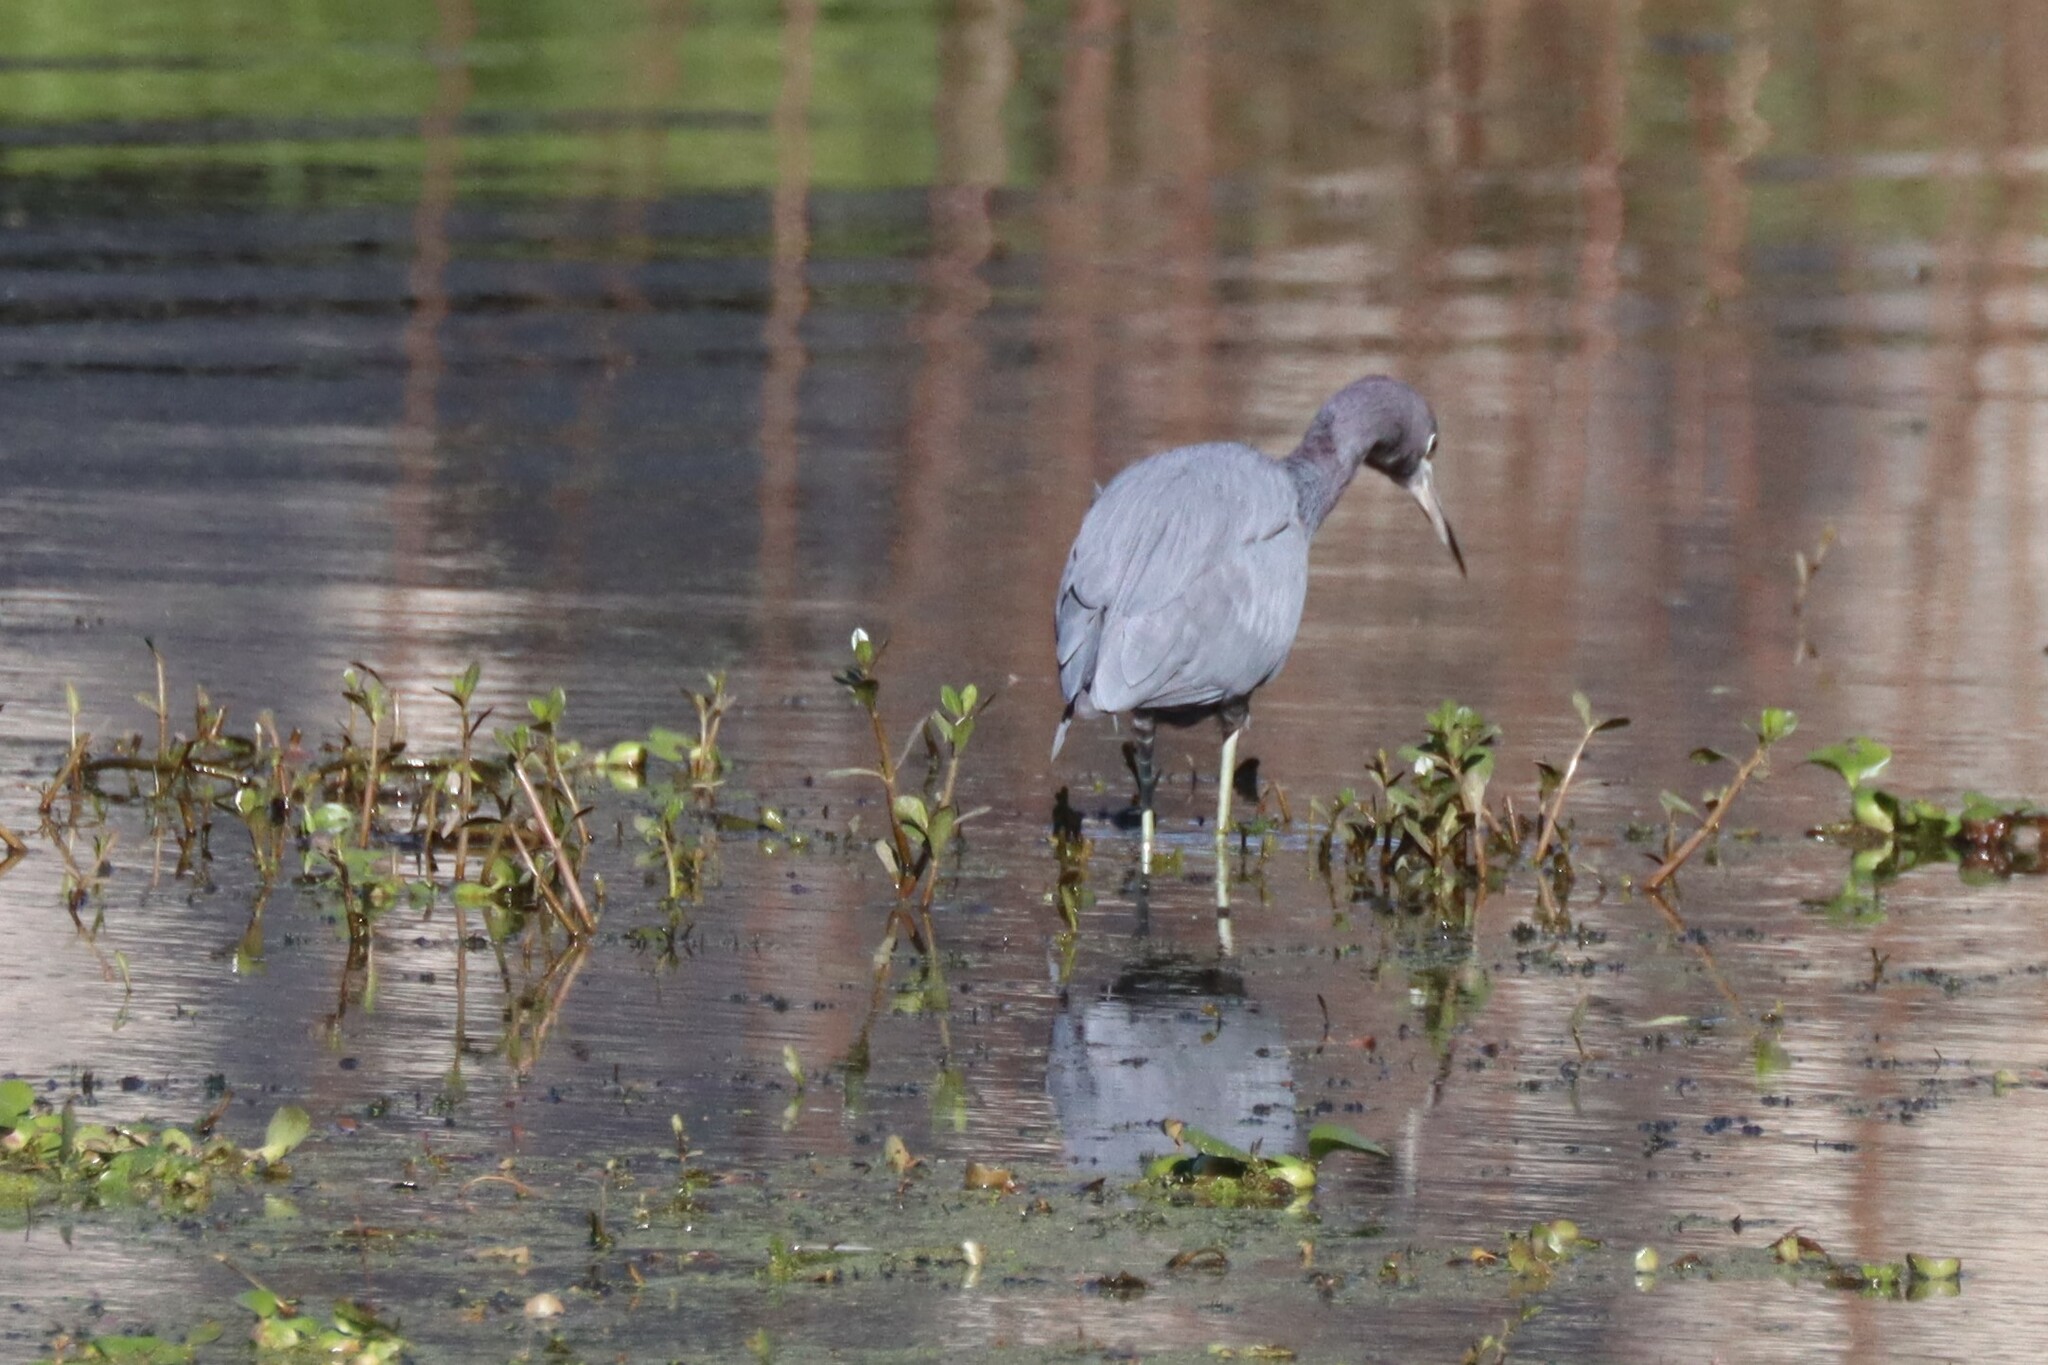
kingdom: Animalia
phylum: Chordata
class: Aves
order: Pelecaniformes
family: Ardeidae
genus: Egretta
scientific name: Egretta caerulea
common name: Little blue heron
